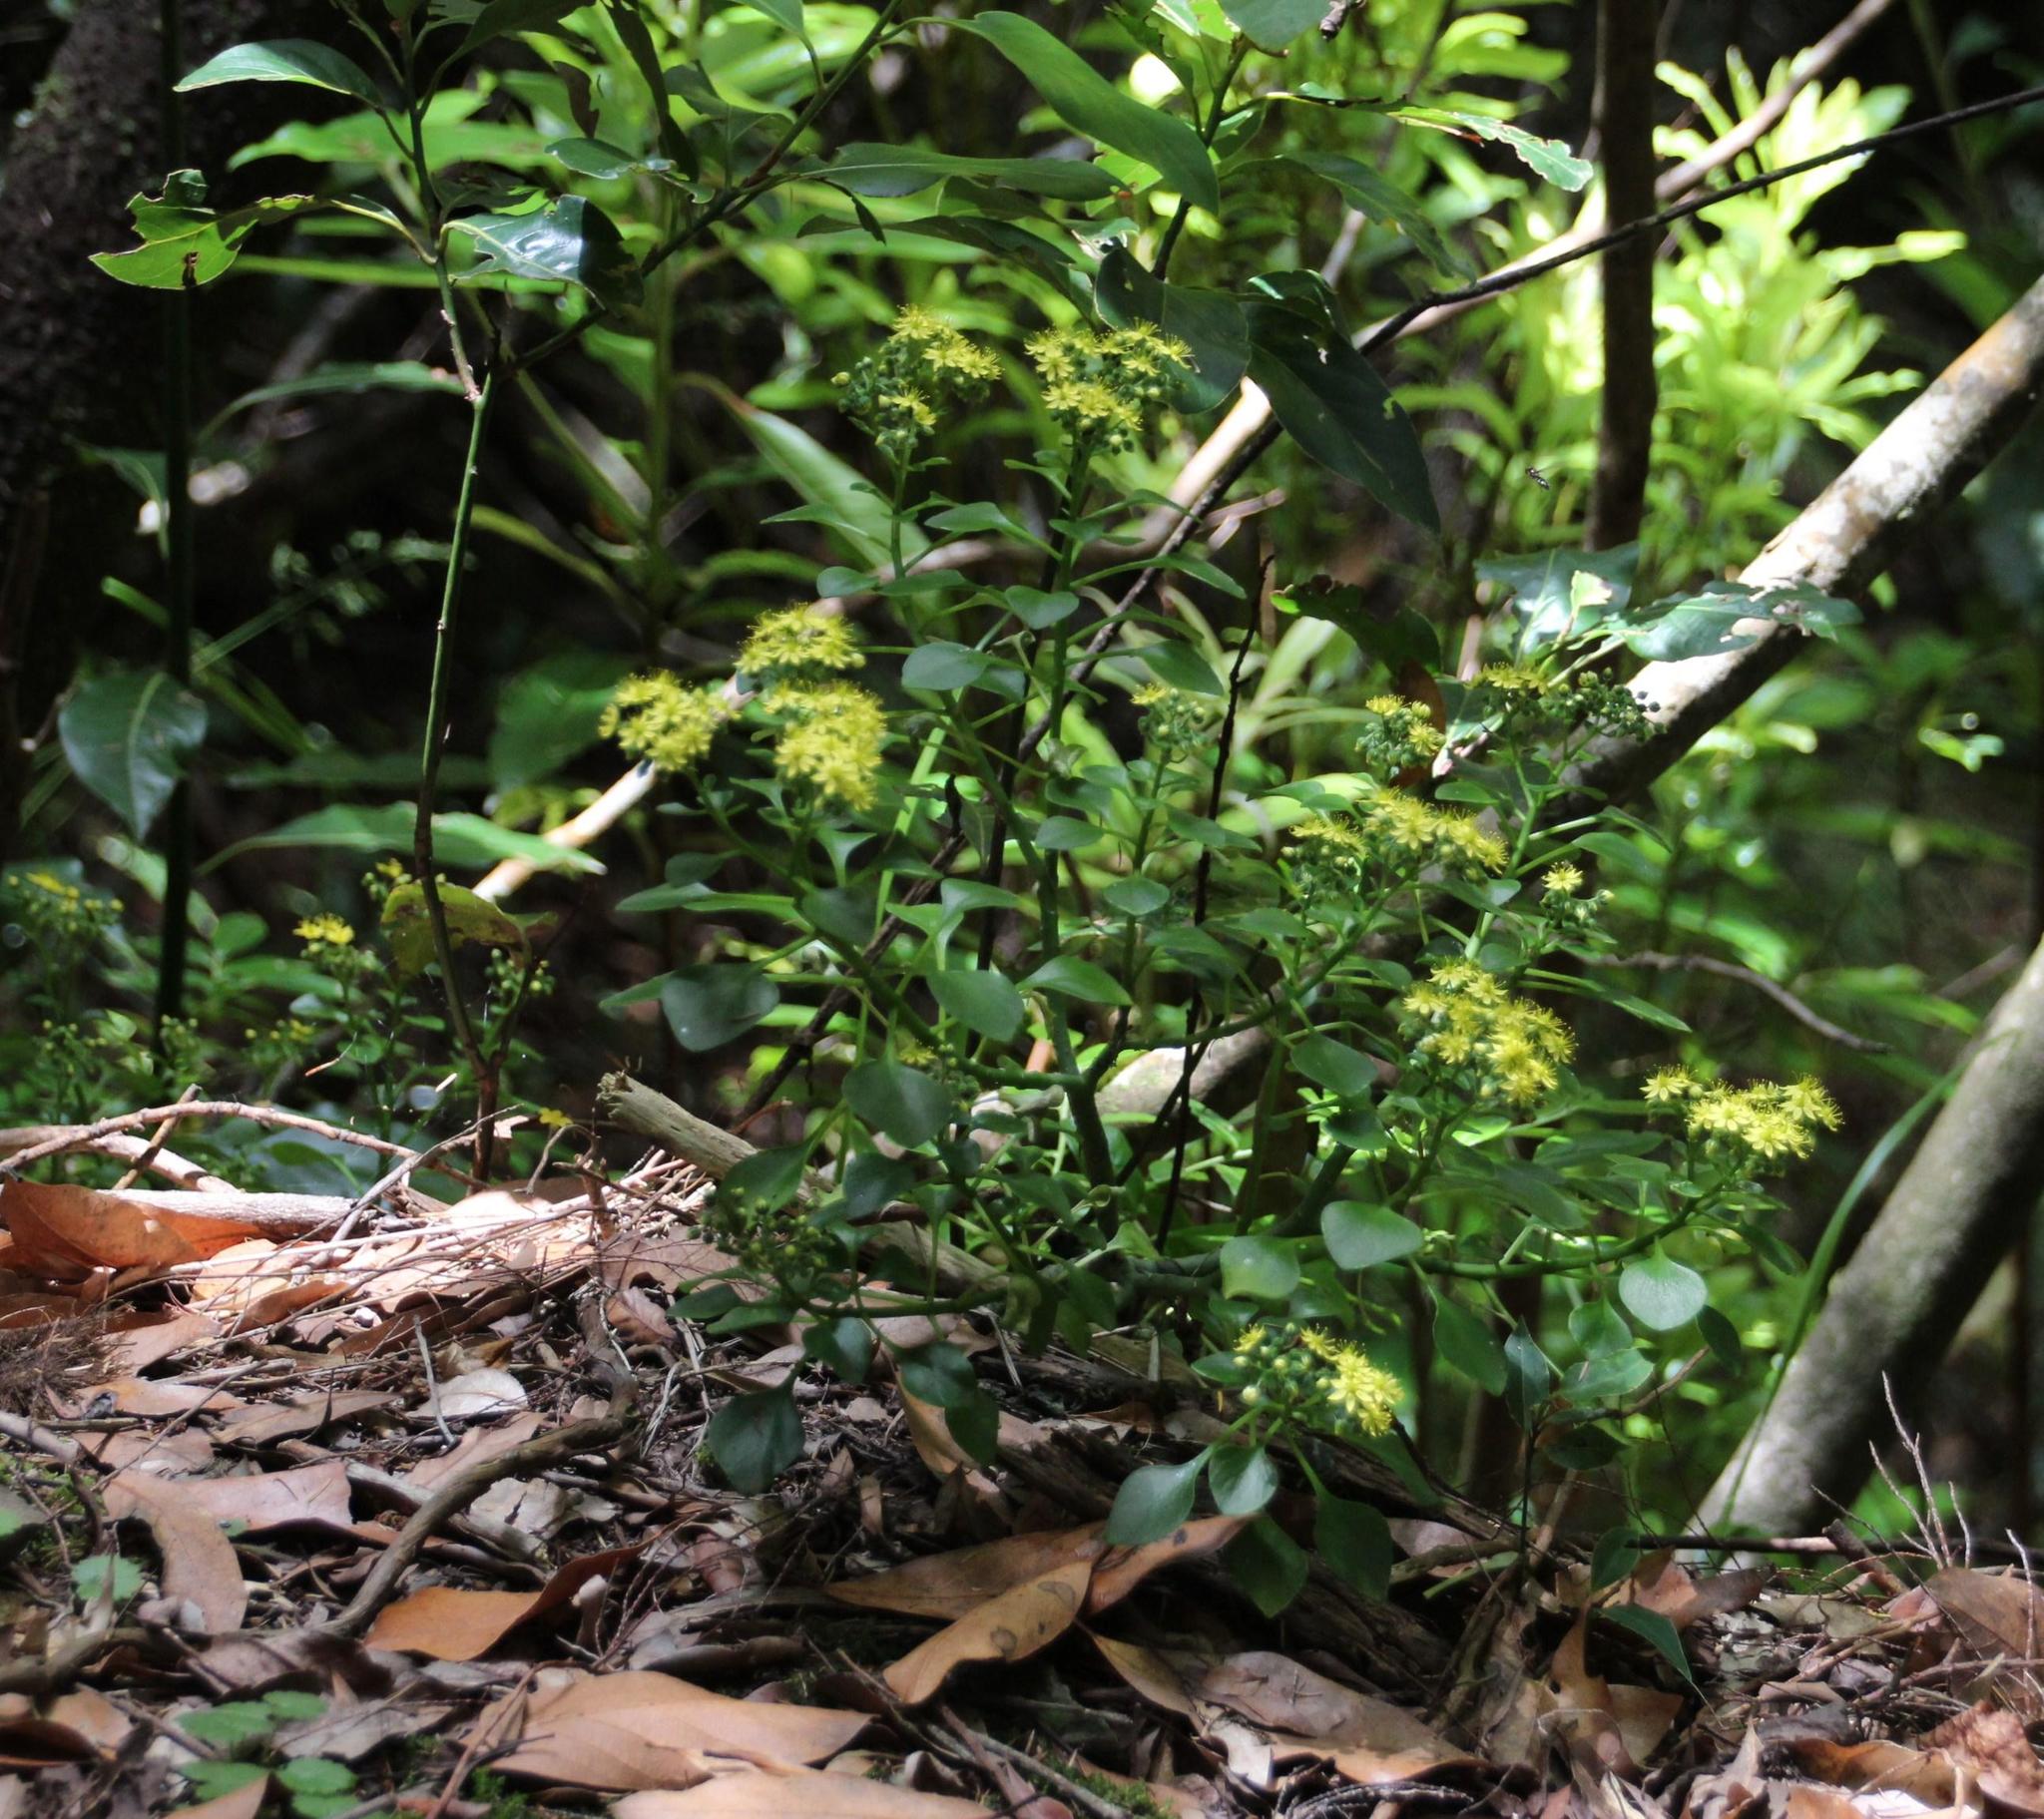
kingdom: Plantae
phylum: Tracheophyta
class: Magnoliopsida
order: Saxifragales
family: Crassulaceae
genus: Aichryson
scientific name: Aichryson divaricatum
